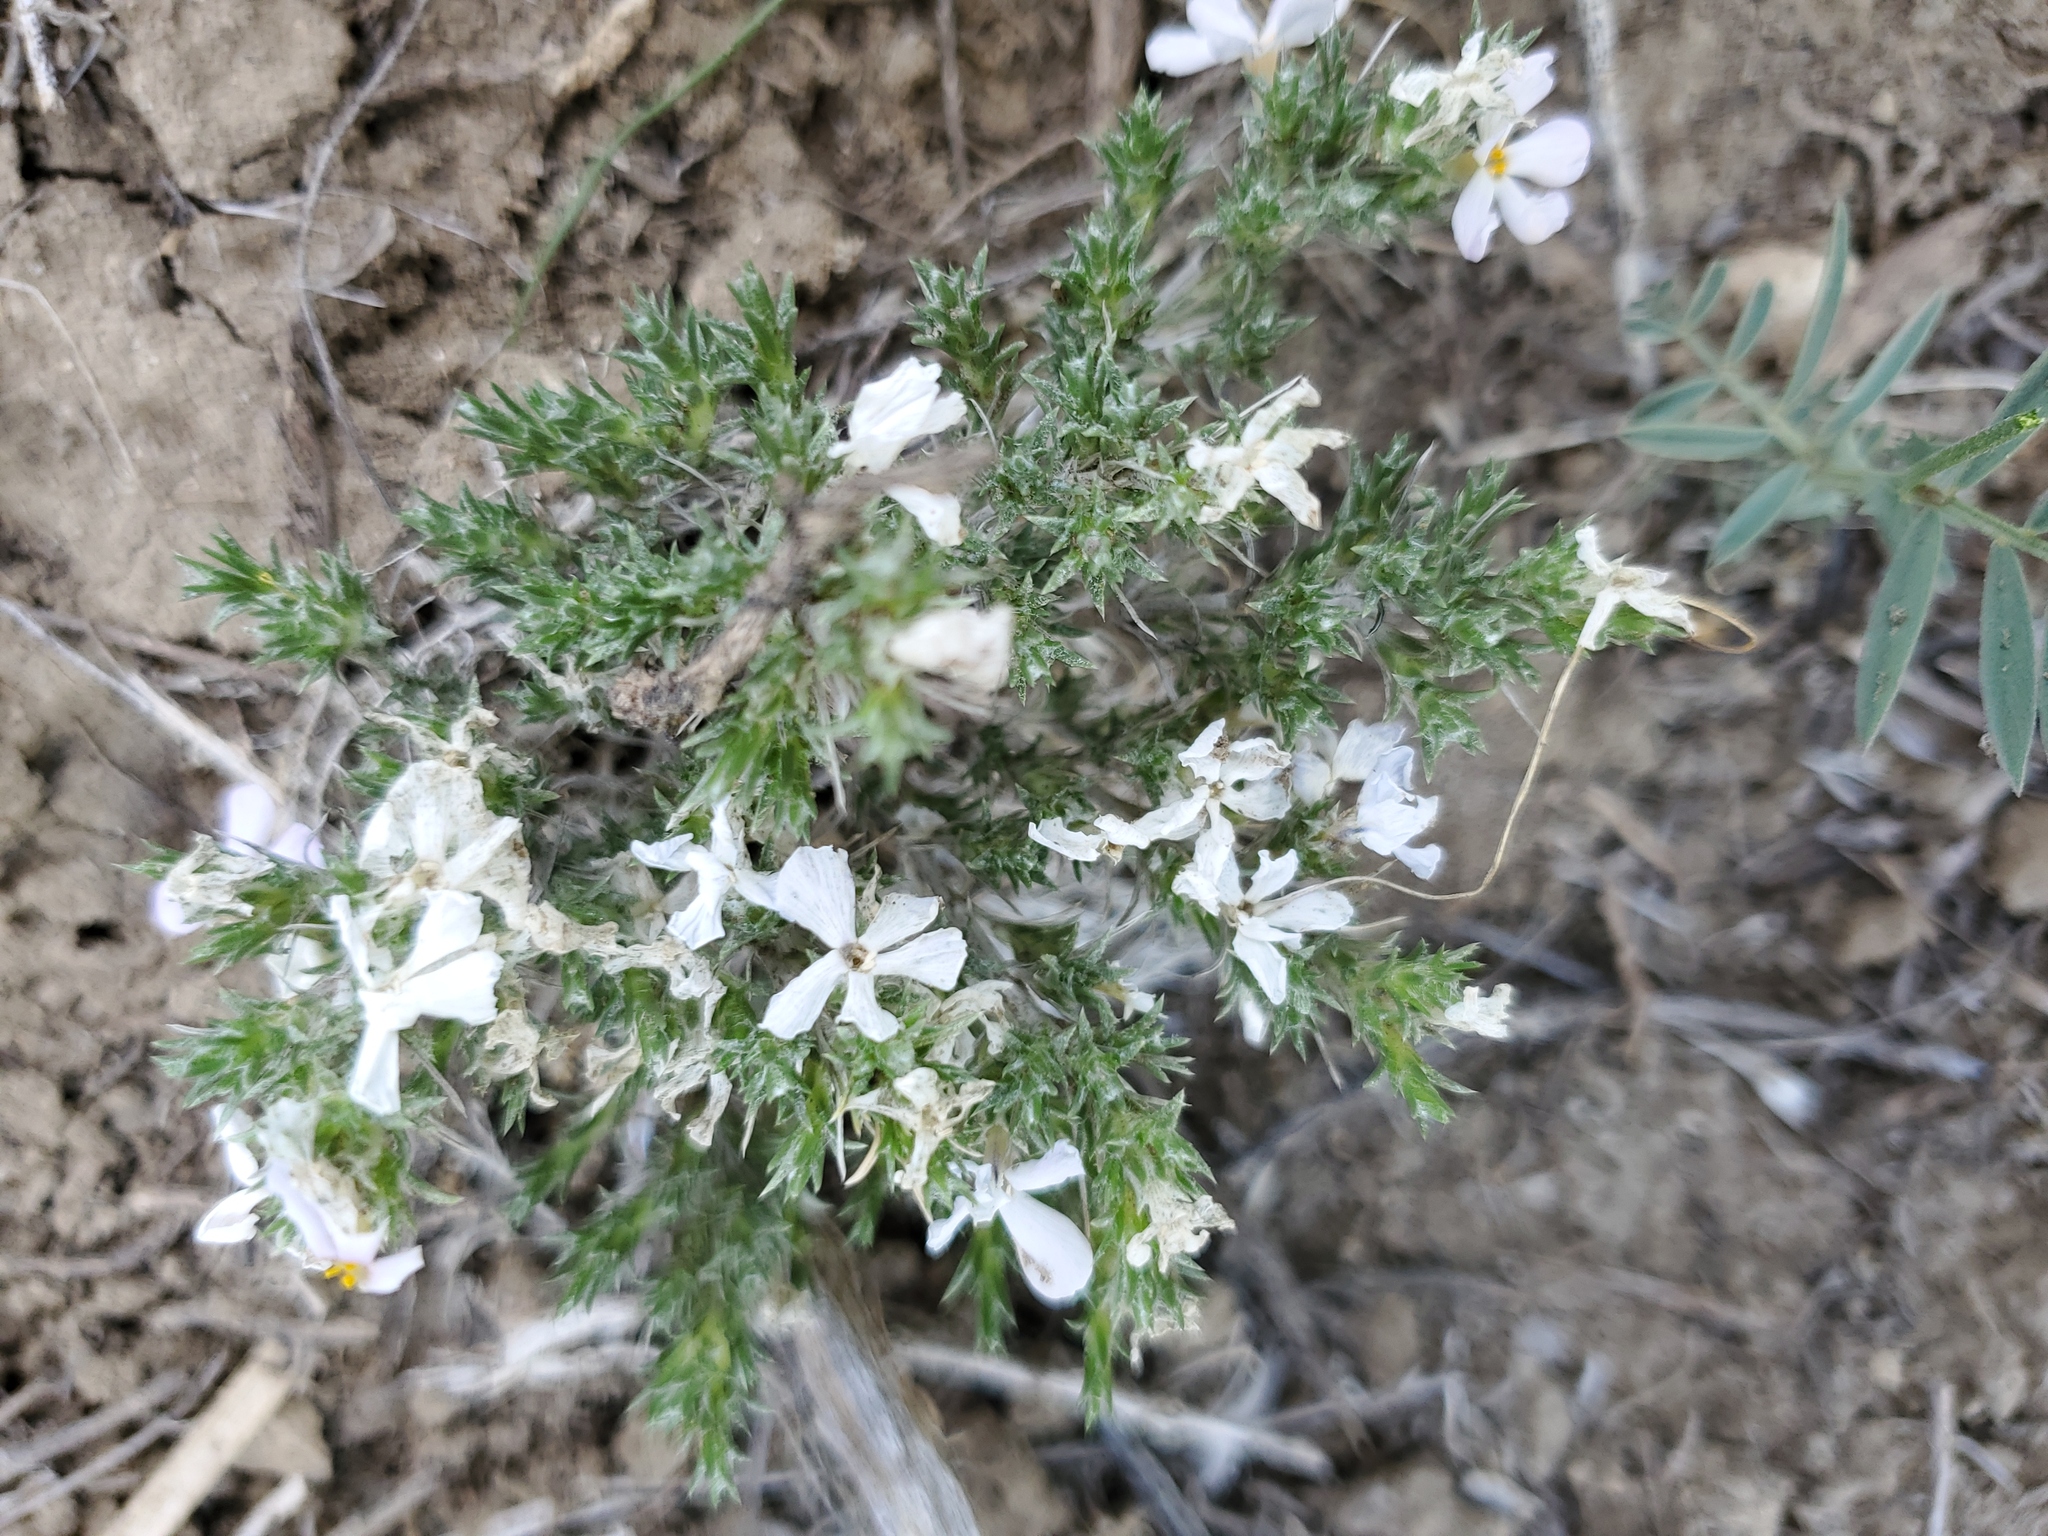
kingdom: Plantae
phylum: Tracheophyta
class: Magnoliopsida
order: Ericales
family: Polemoniaceae
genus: Phlox
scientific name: Phlox hoodii
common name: Moss phlox
